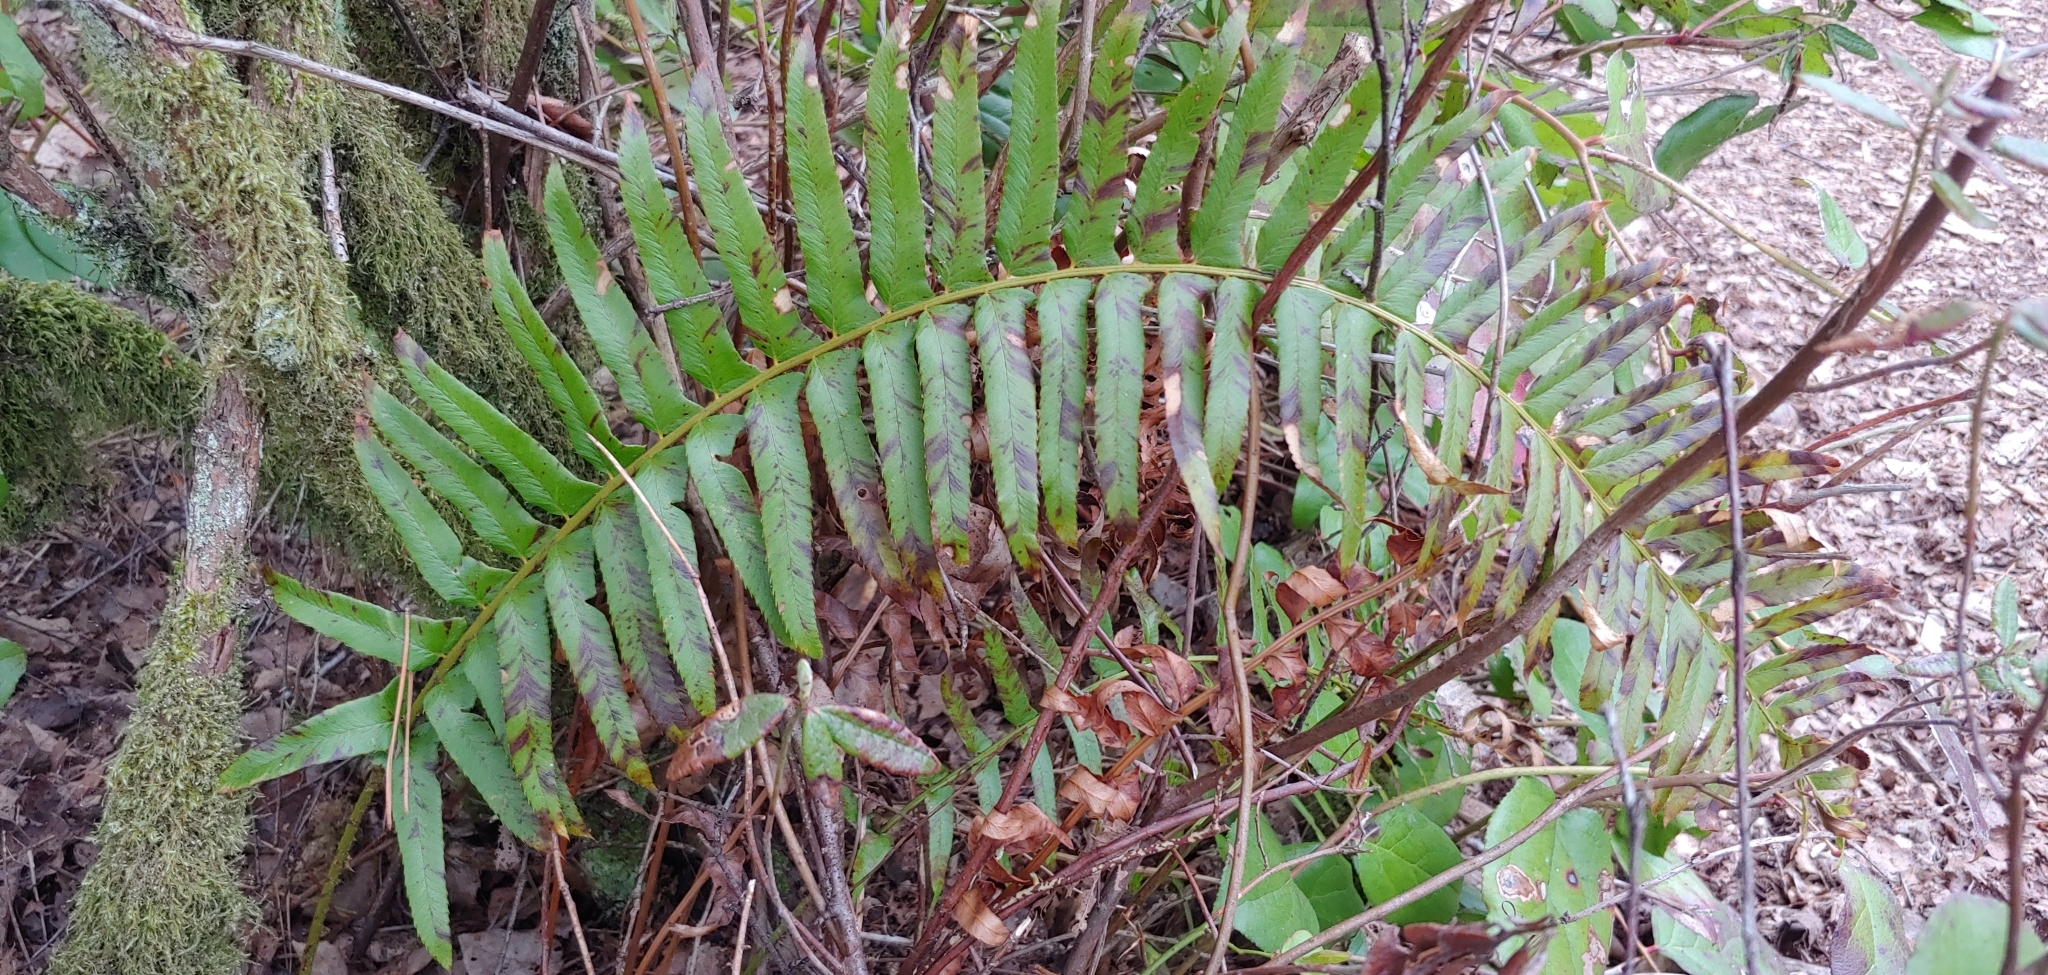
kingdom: Plantae
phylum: Tracheophyta
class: Polypodiopsida
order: Polypodiales
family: Dryopteridaceae
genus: Polystichum
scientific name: Polystichum munitum
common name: Western sword-fern
